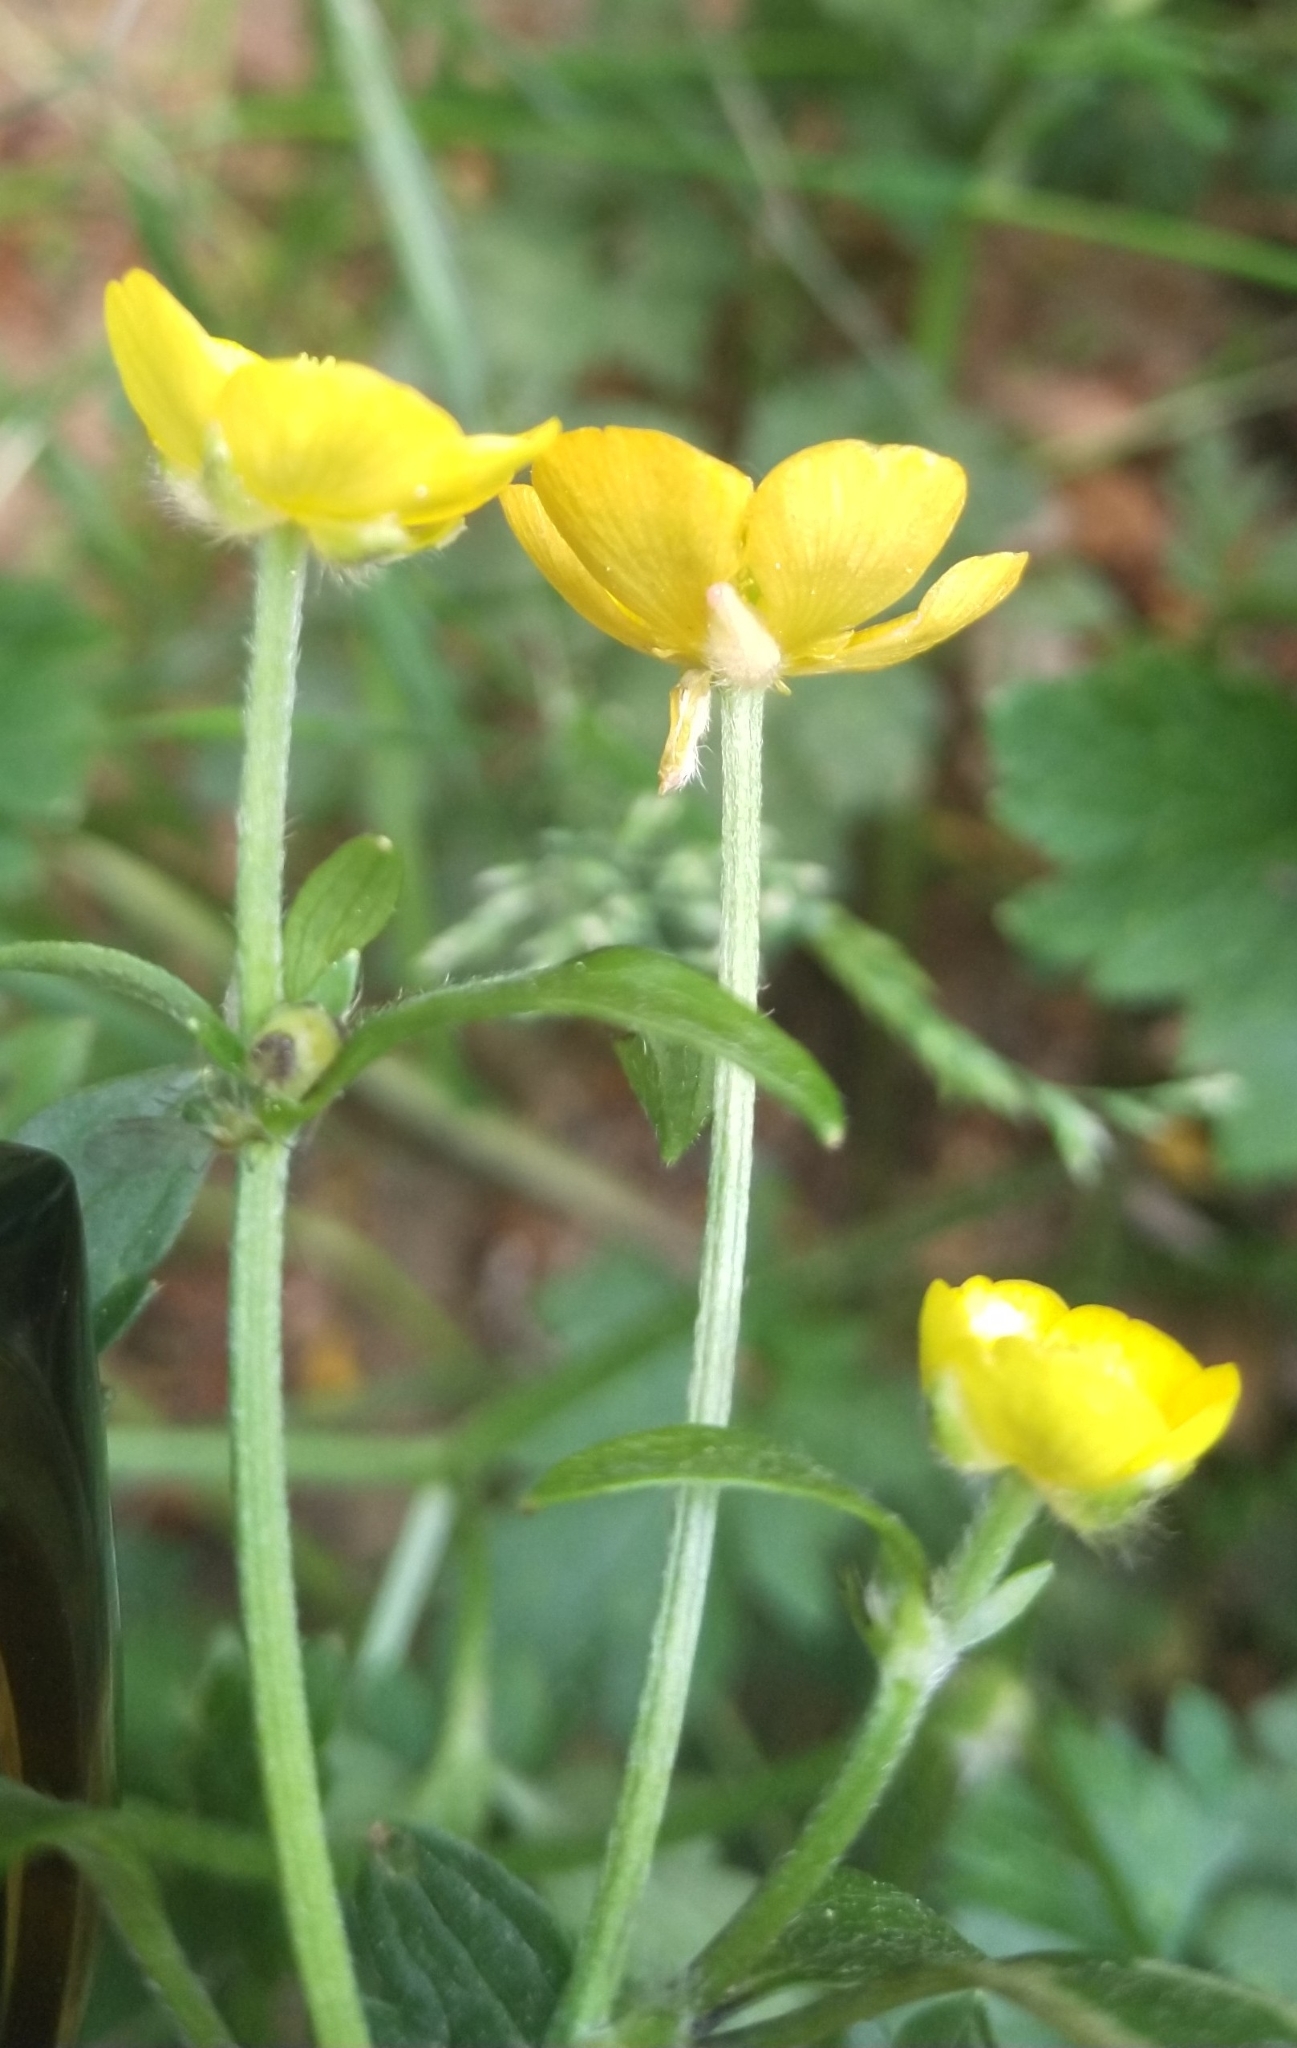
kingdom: Plantae
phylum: Tracheophyta
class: Magnoliopsida
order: Ranunculales
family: Ranunculaceae
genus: Ranunculus
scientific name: Ranunculus repens
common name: Creeping buttercup
